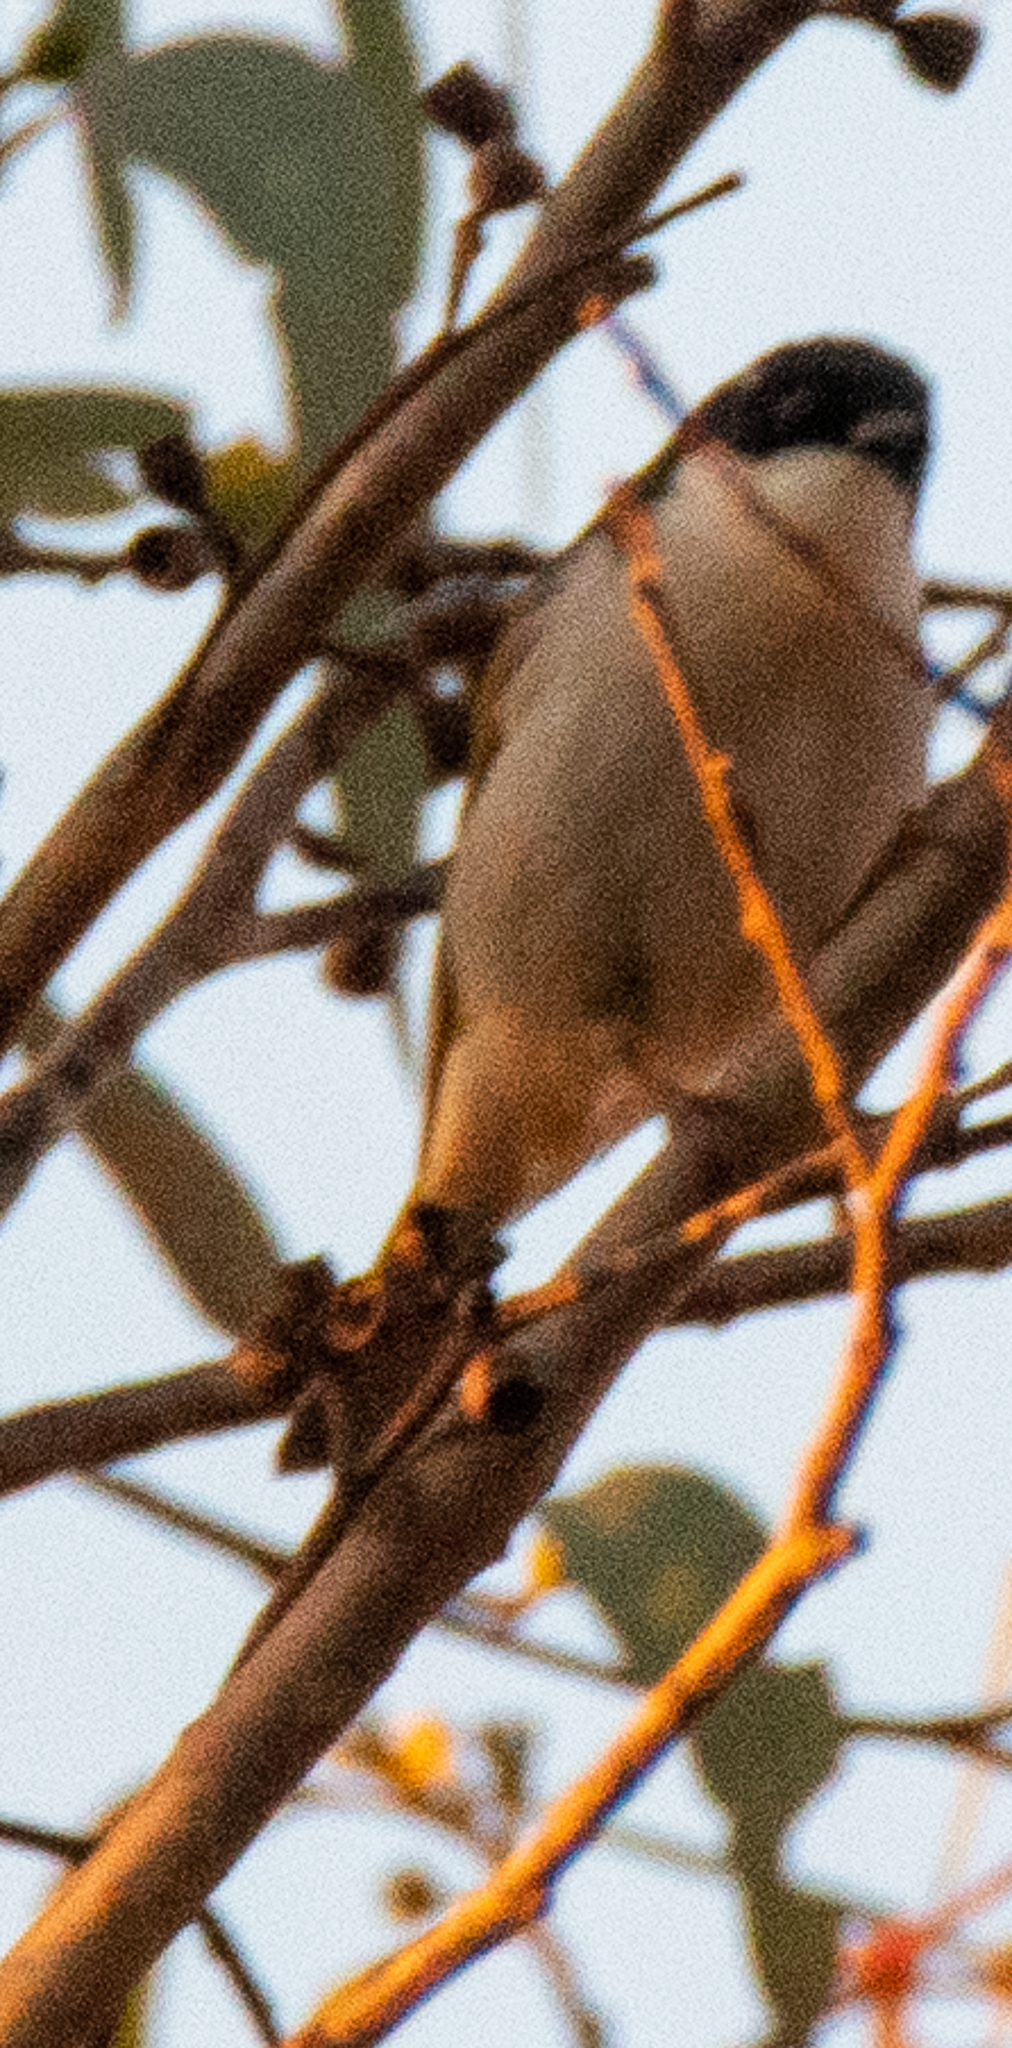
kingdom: Animalia
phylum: Chordata
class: Aves
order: Passeriformes
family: Meliphagidae
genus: Melithreptus
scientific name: Melithreptus lunatus
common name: White-naped honeyeater
